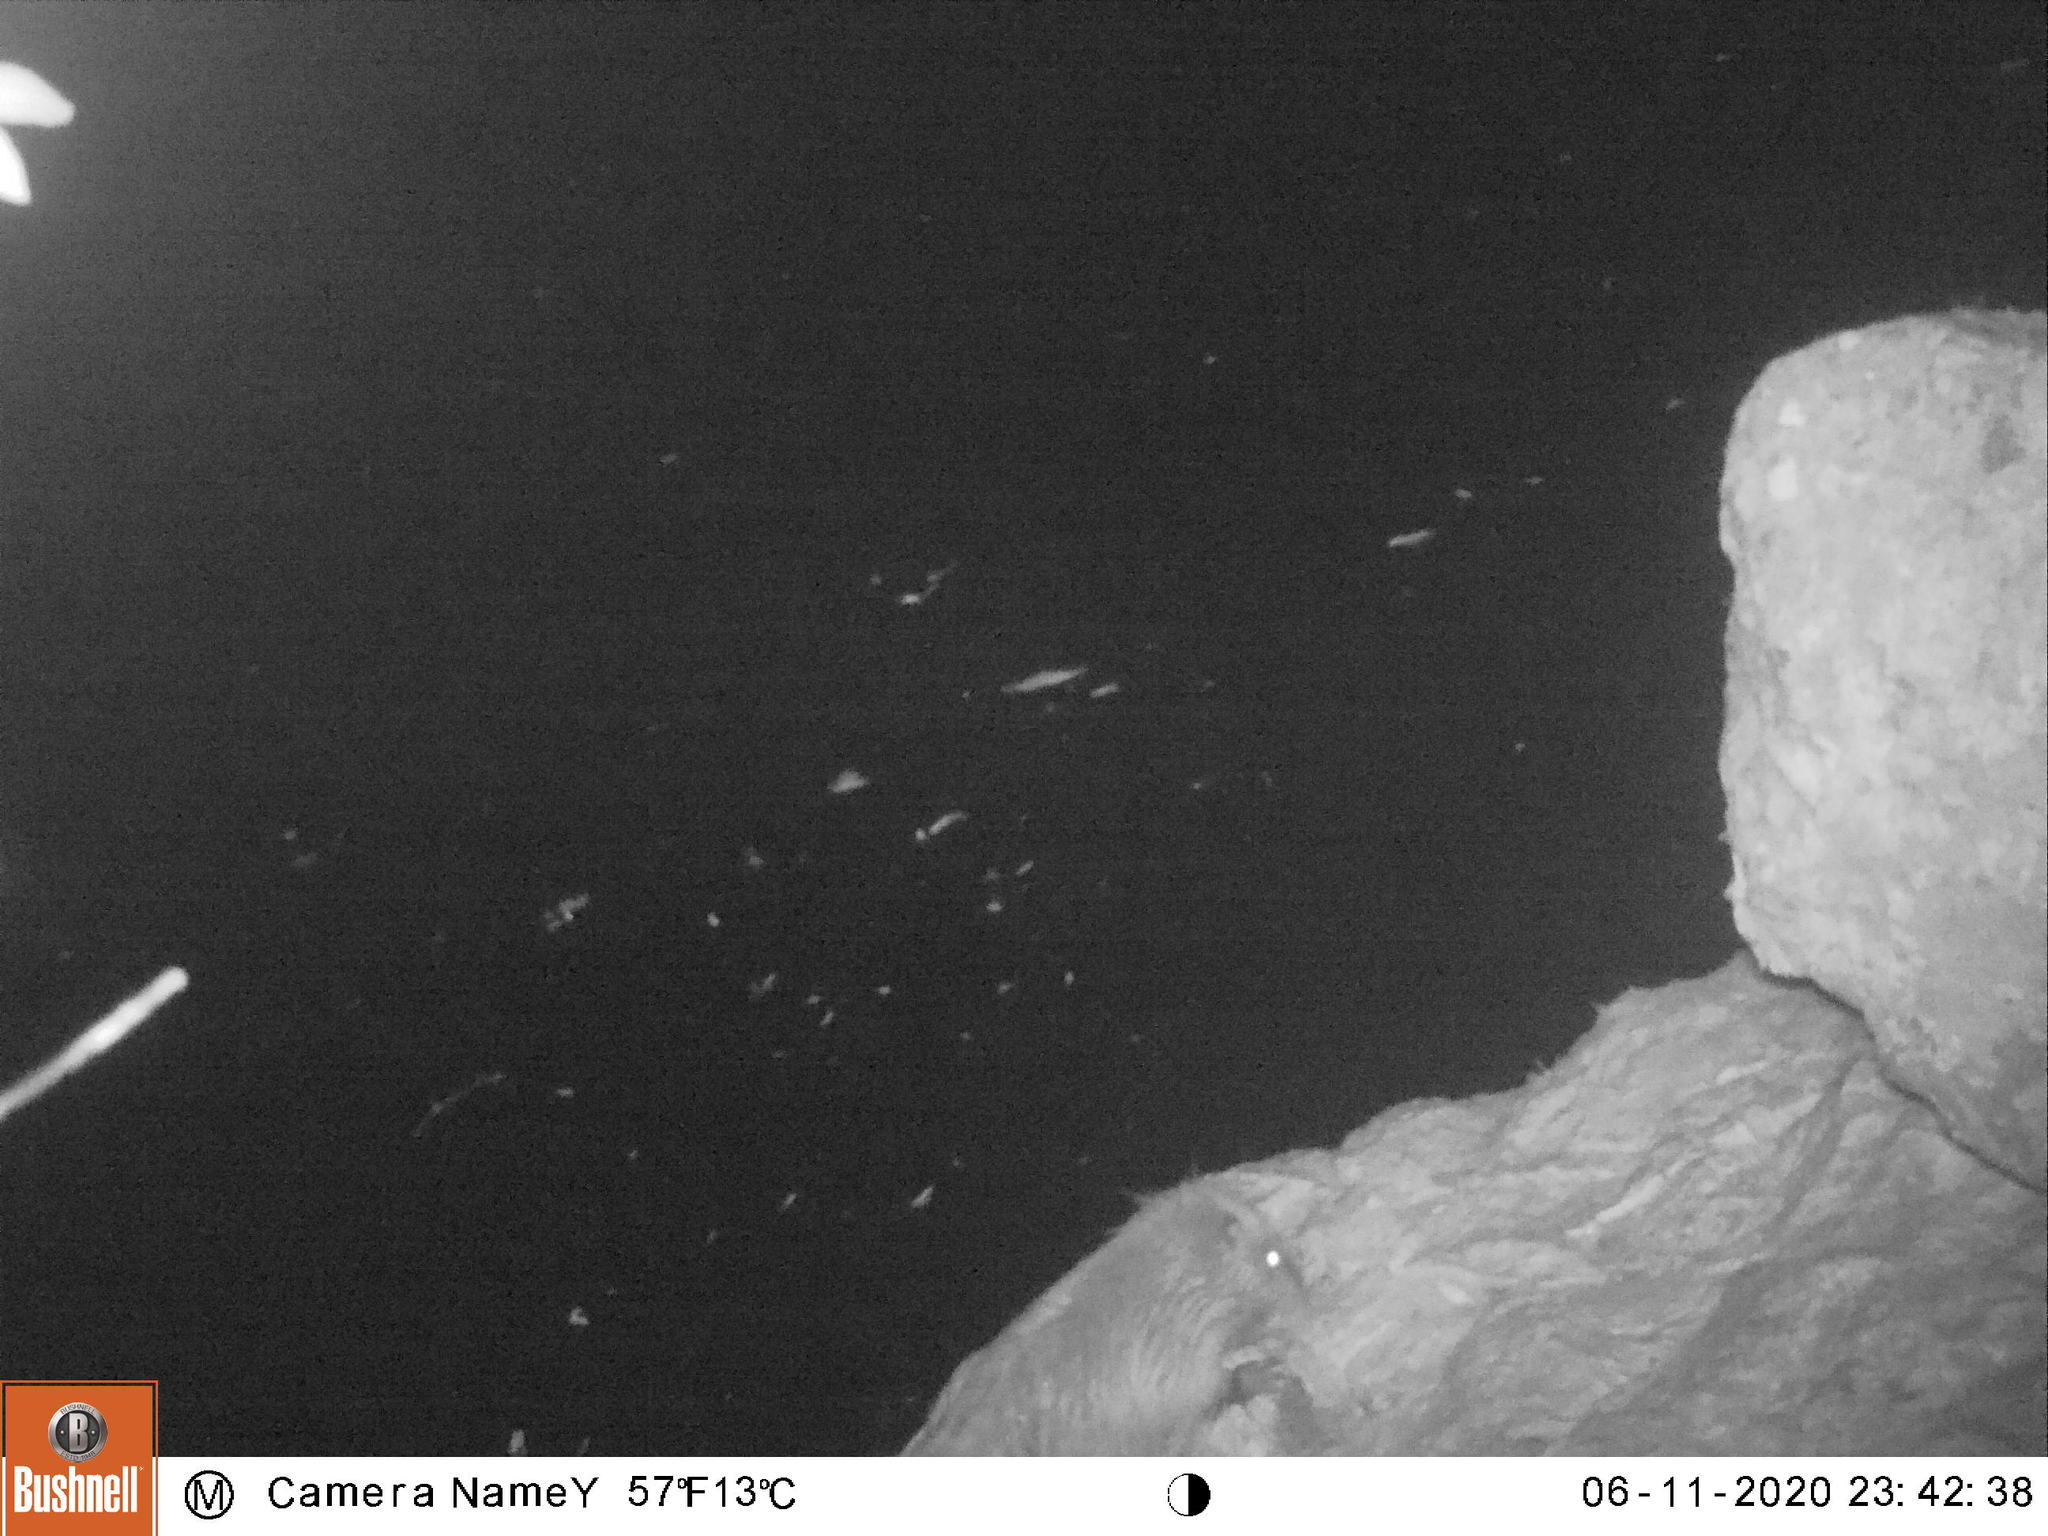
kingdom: Animalia
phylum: Chordata
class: Mammalia
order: Rodentia
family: Myocastoridae
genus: Myocastor
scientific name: Myocastor coypus
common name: Coypu
